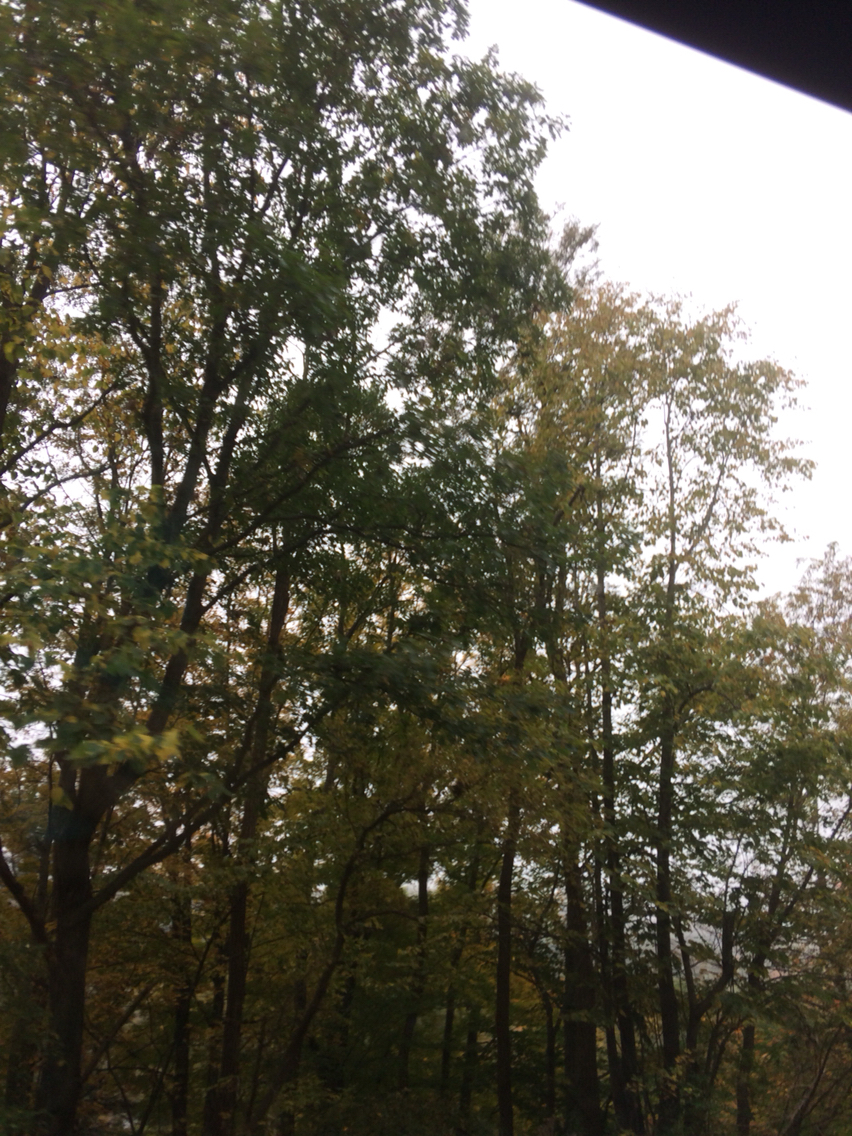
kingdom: Plantae
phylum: Tracheophyta
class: Magnoliopsida
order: Fagales
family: Fagaceae
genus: Quercus
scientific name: Quercus rubra
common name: Red oak
